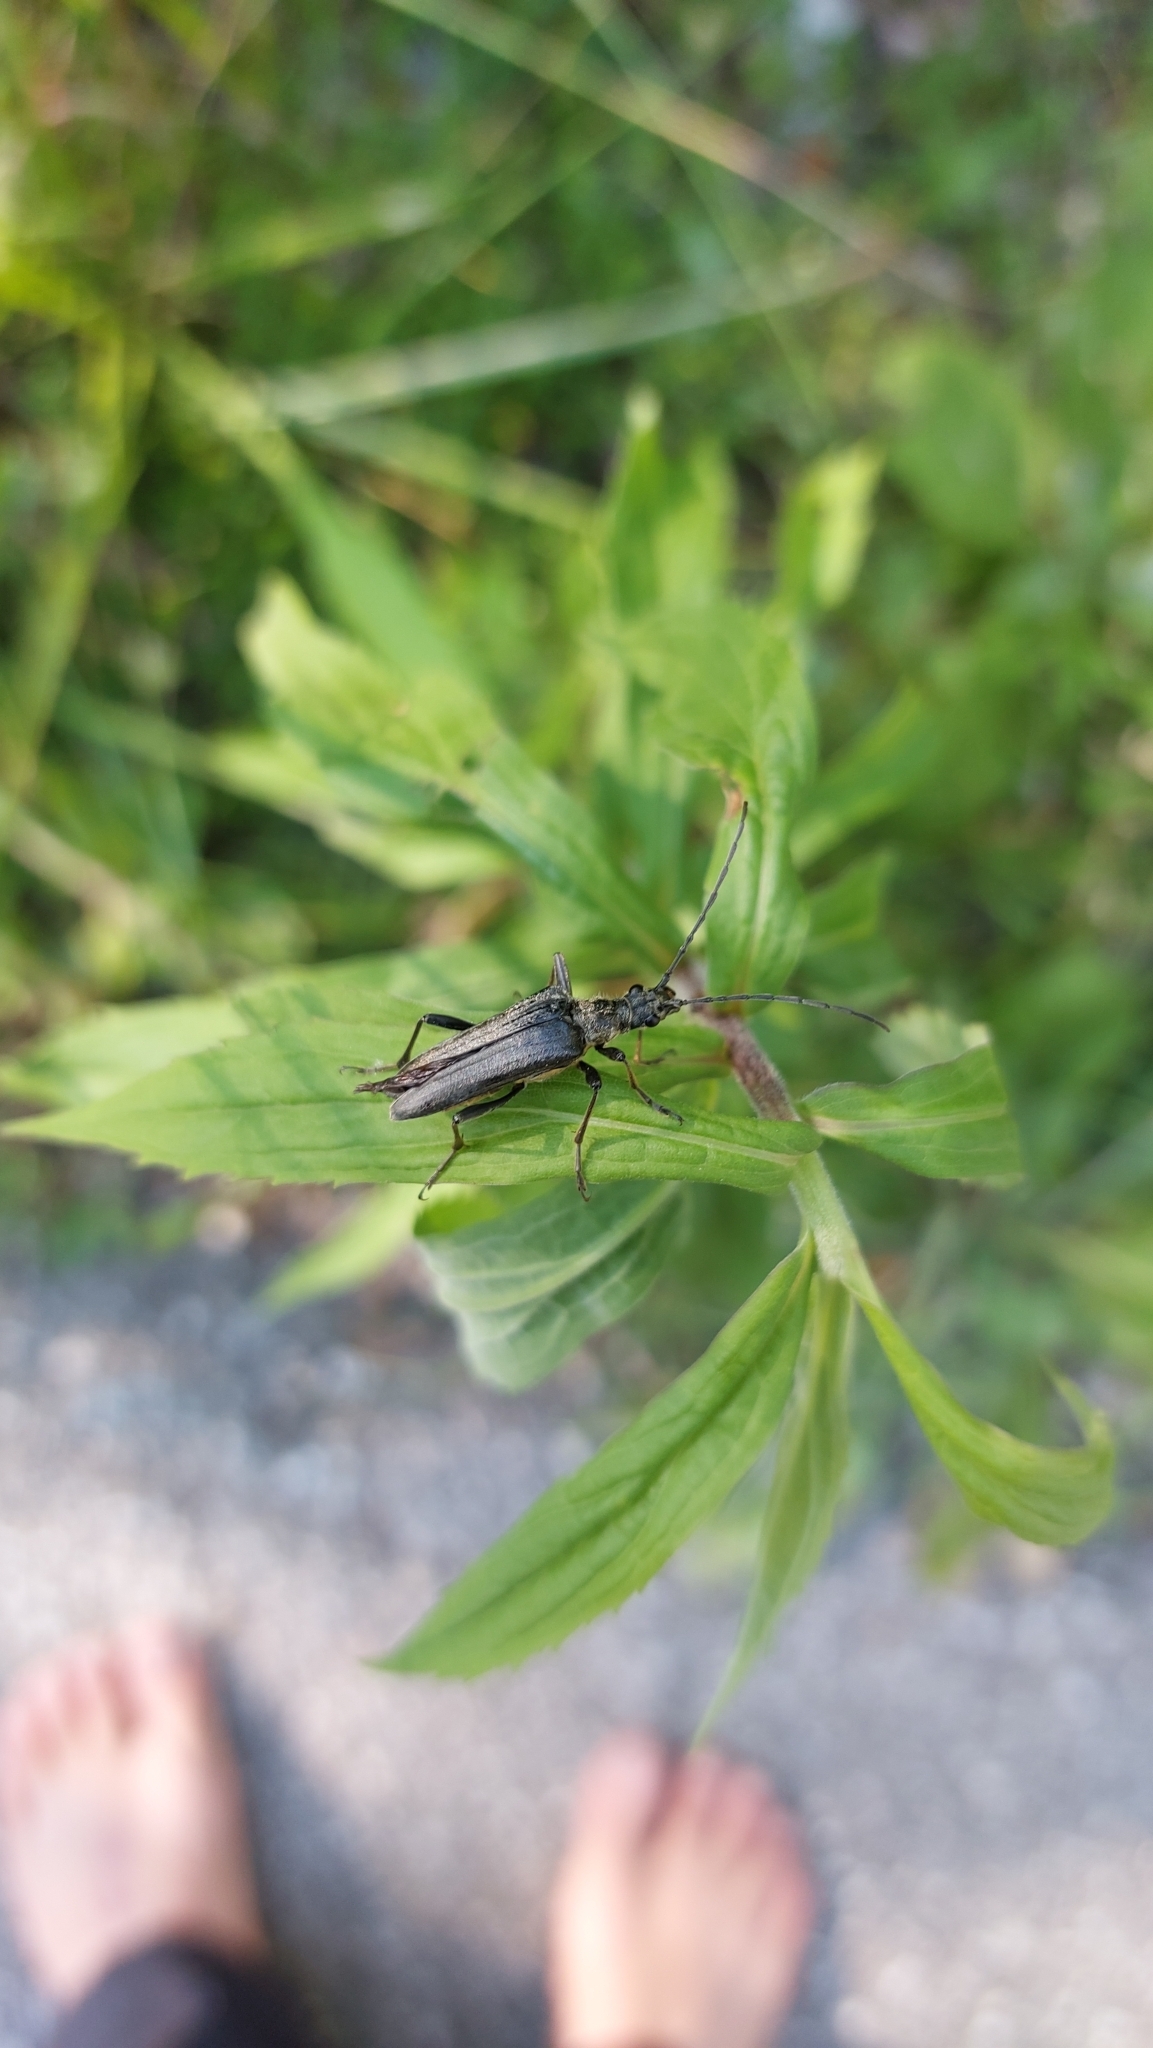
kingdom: Animalia
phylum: Arthropoda
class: Insecta
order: Coleoptera
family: Cerambycidae
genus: Stenocorus
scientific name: Stenocorus meridianus
